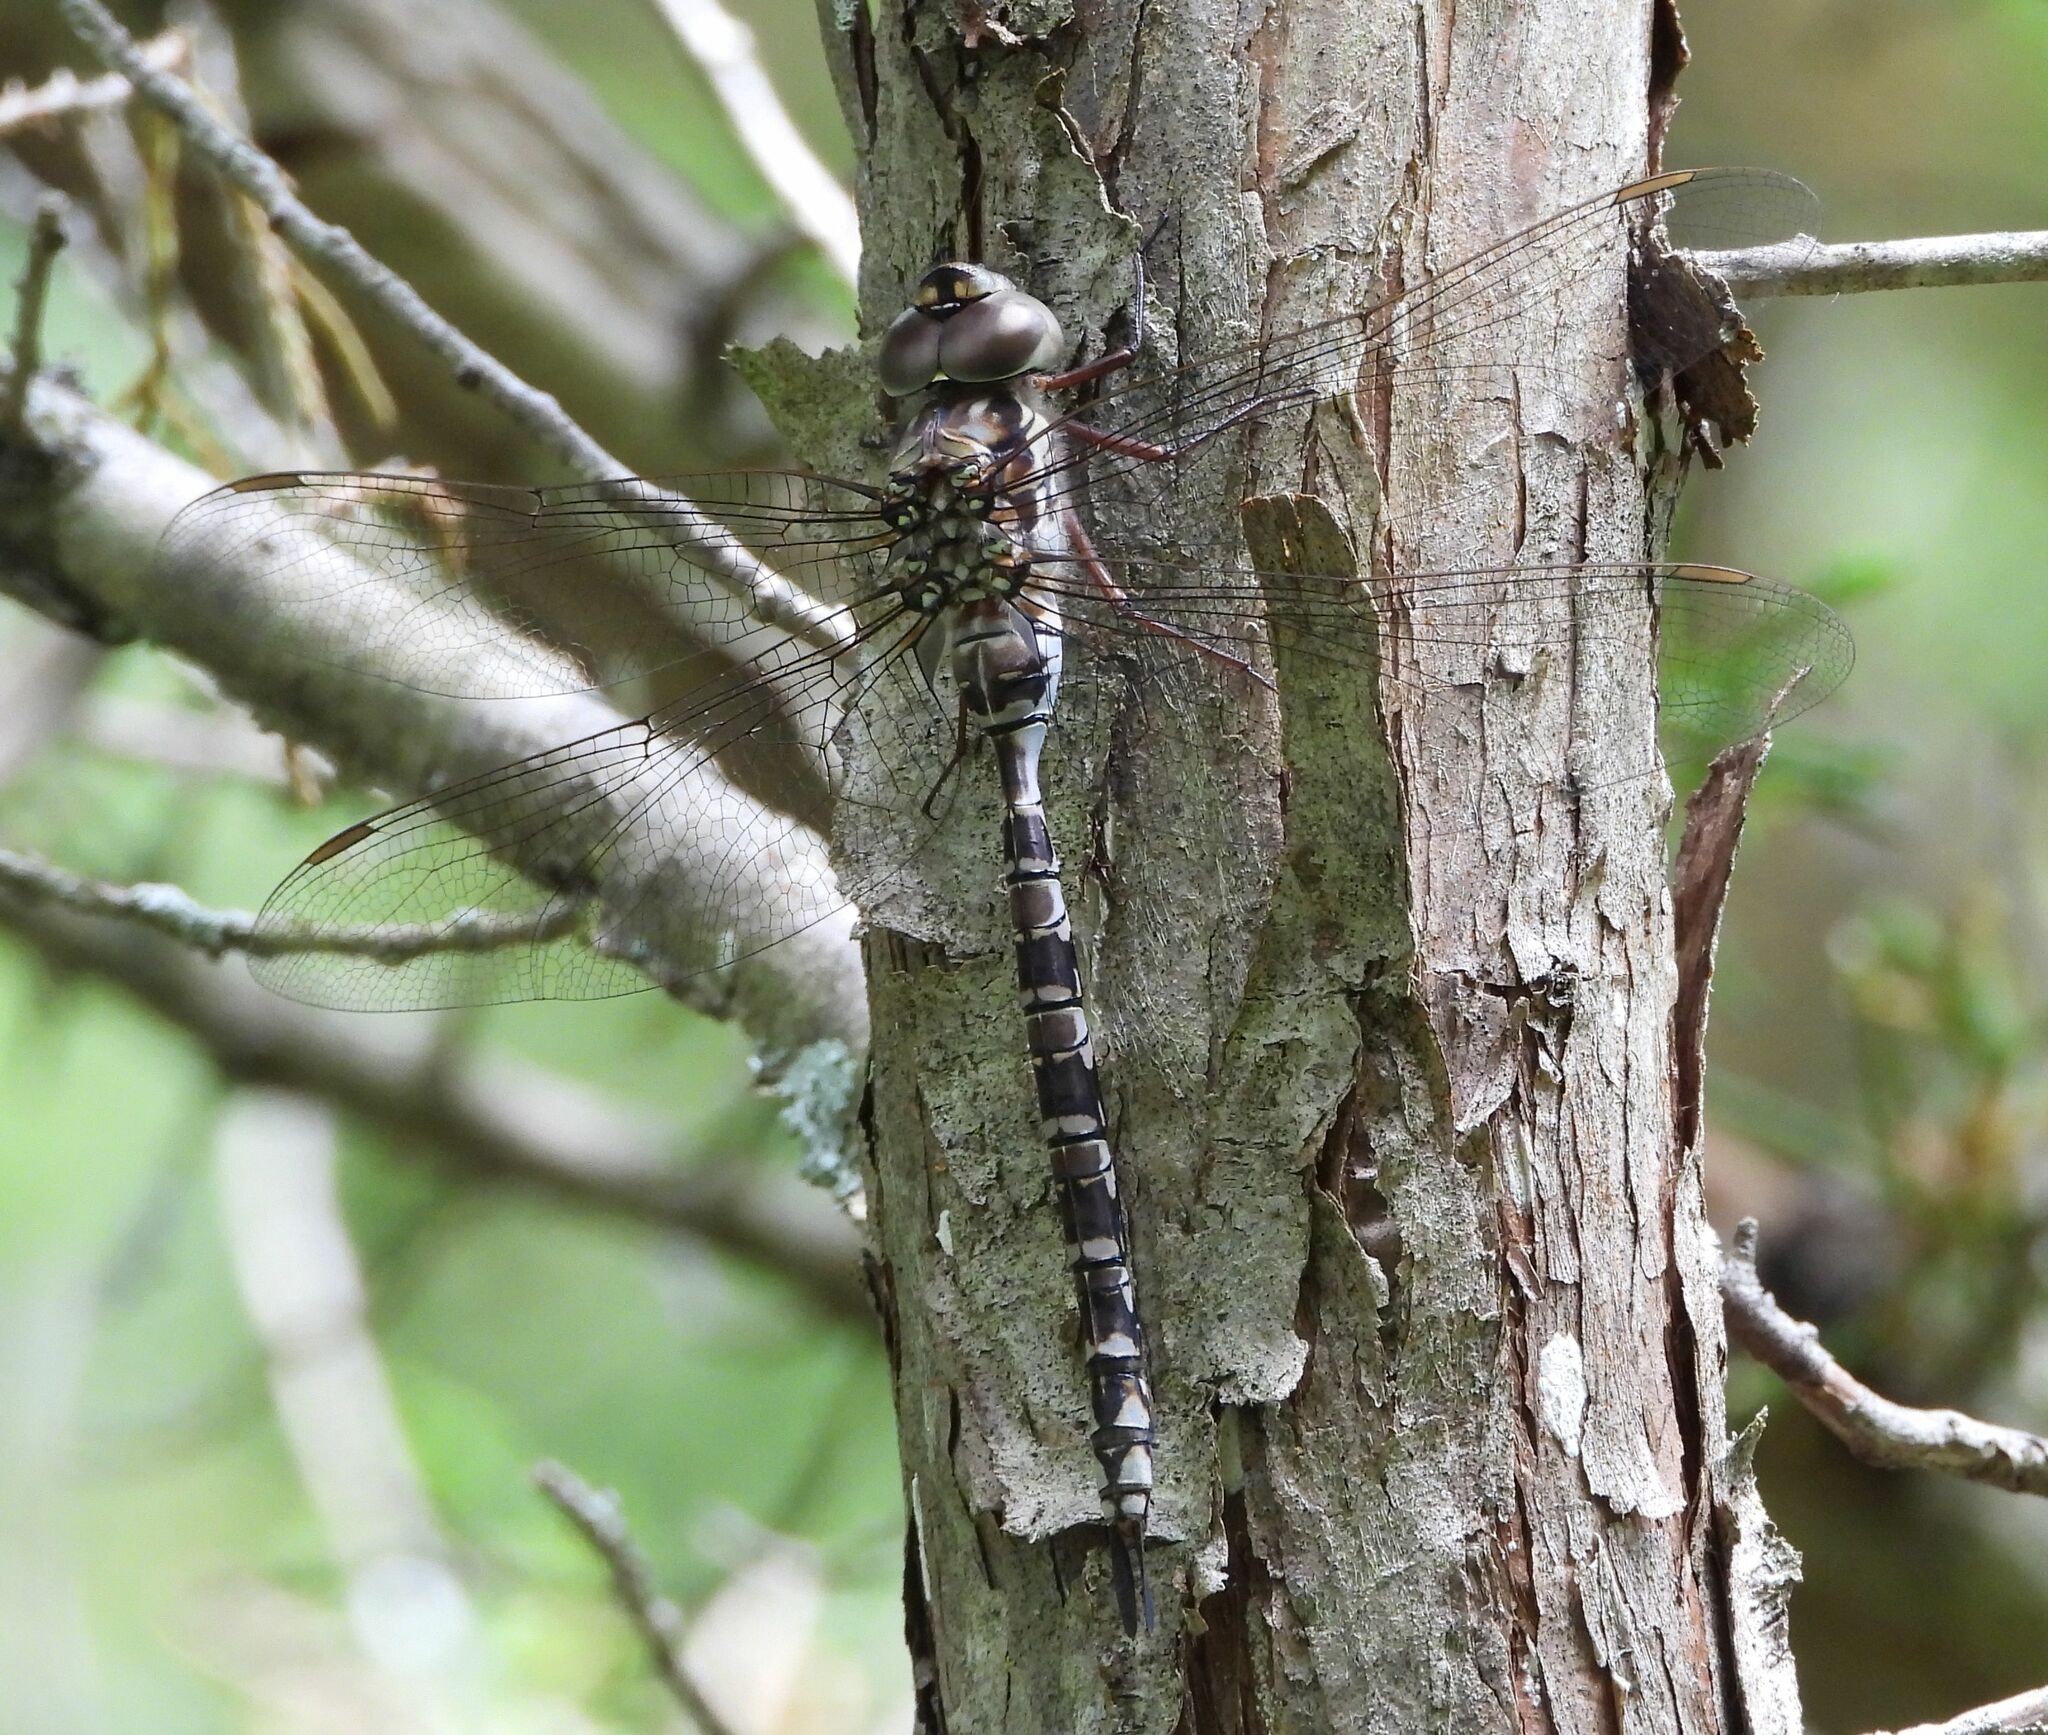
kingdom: Animalia
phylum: Arthropoda
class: Insecta
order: Odonata
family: Aeshnidae
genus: Aeshna
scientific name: Aeshna clepsydra
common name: Mottled darner
